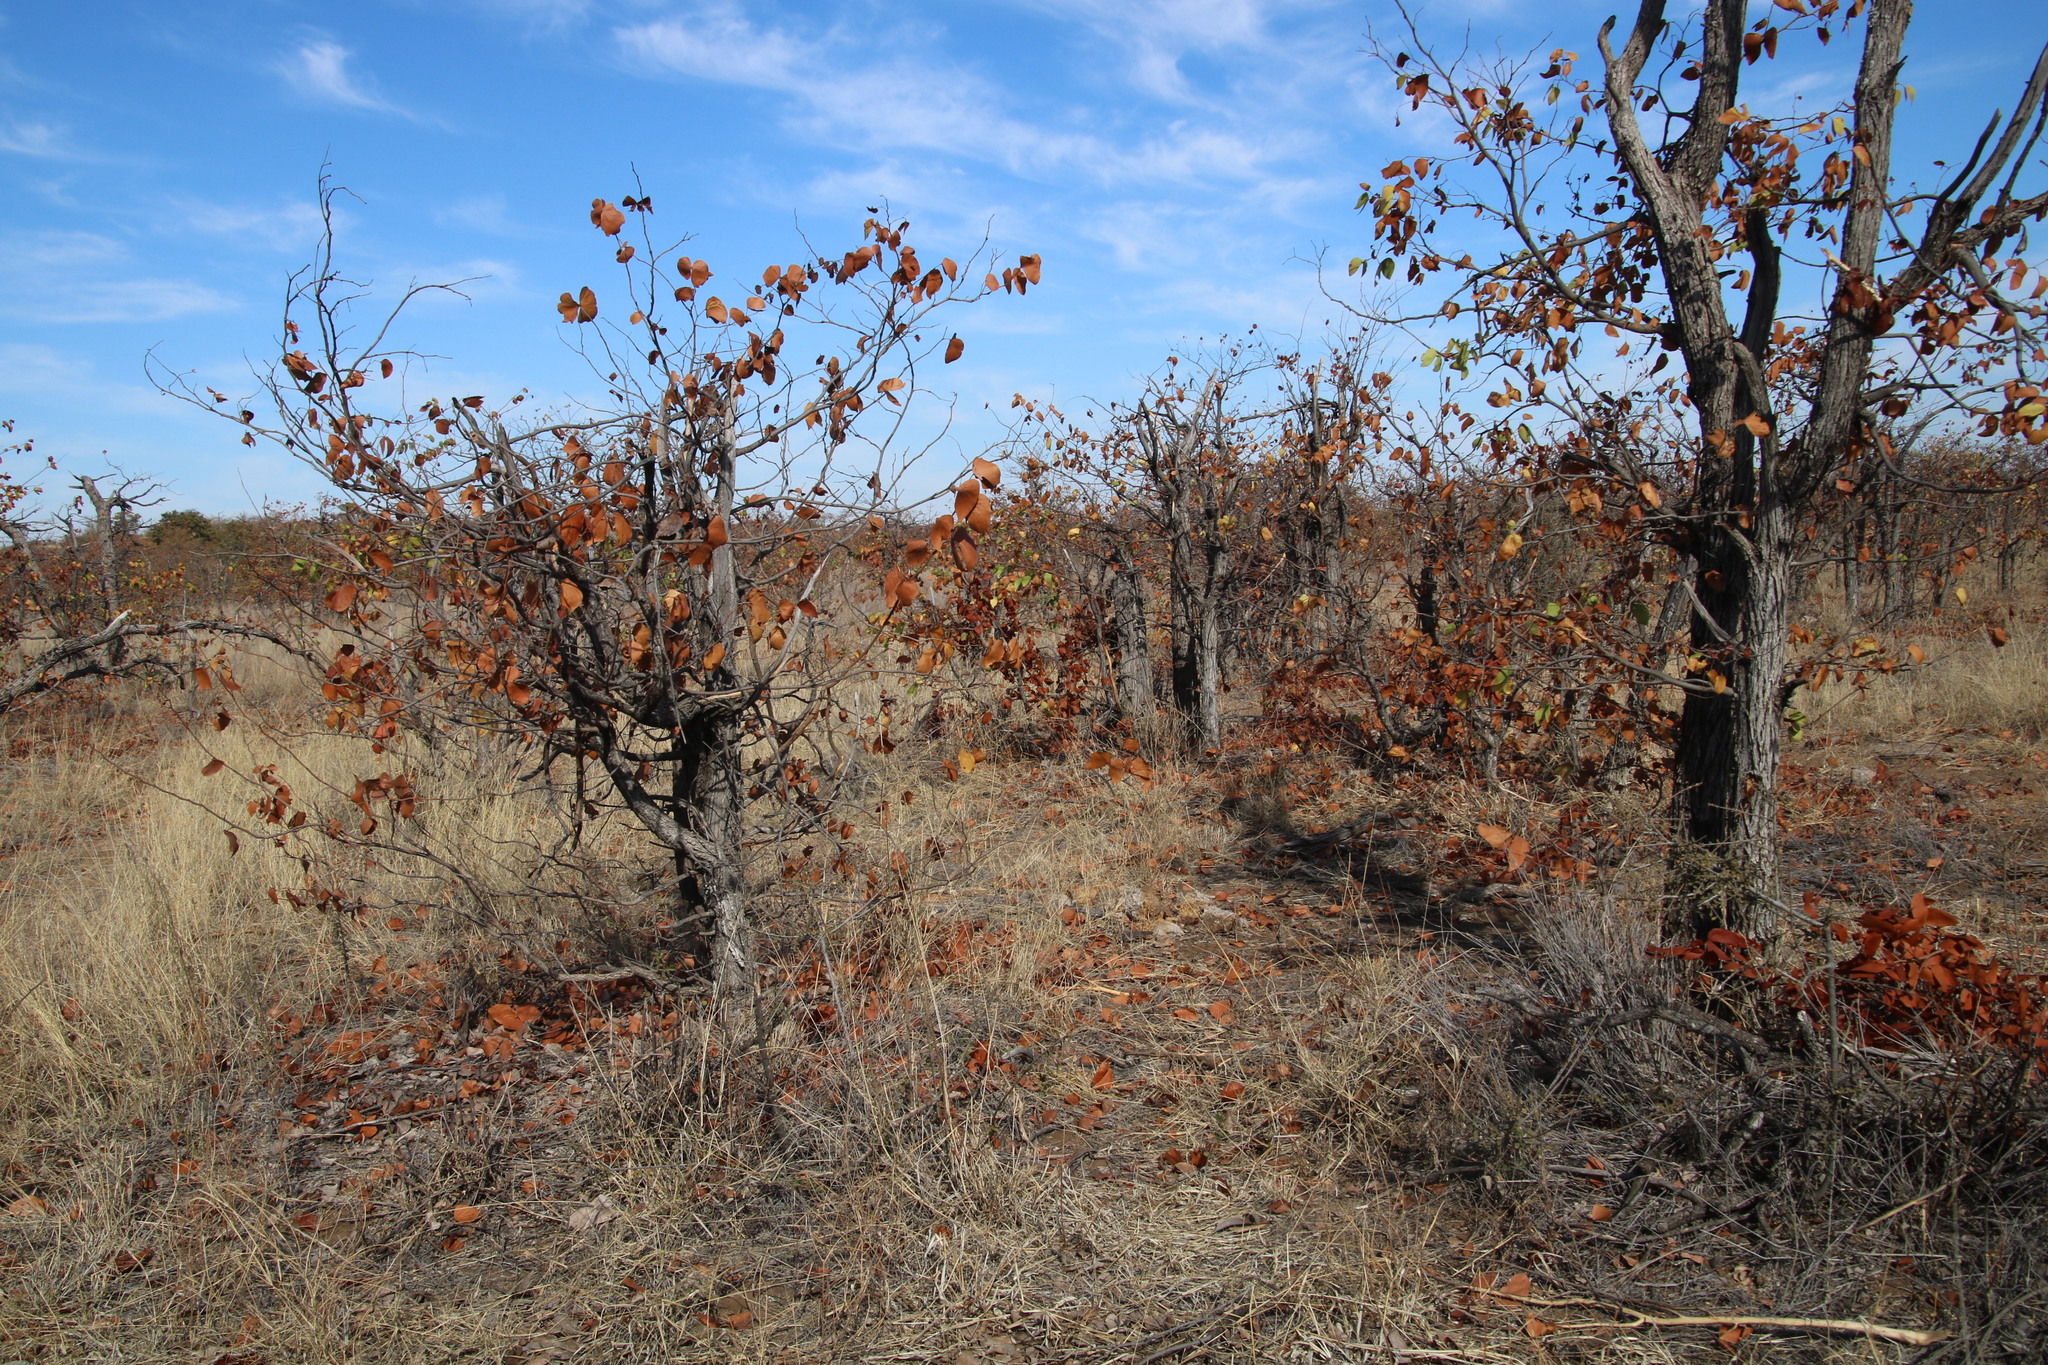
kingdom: Plantae
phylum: Tracheophyta
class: Magnoliopsida
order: Fabales
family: Fabaceae
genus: Colophospermum
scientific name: Colophospermum mopane
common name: Mopane
